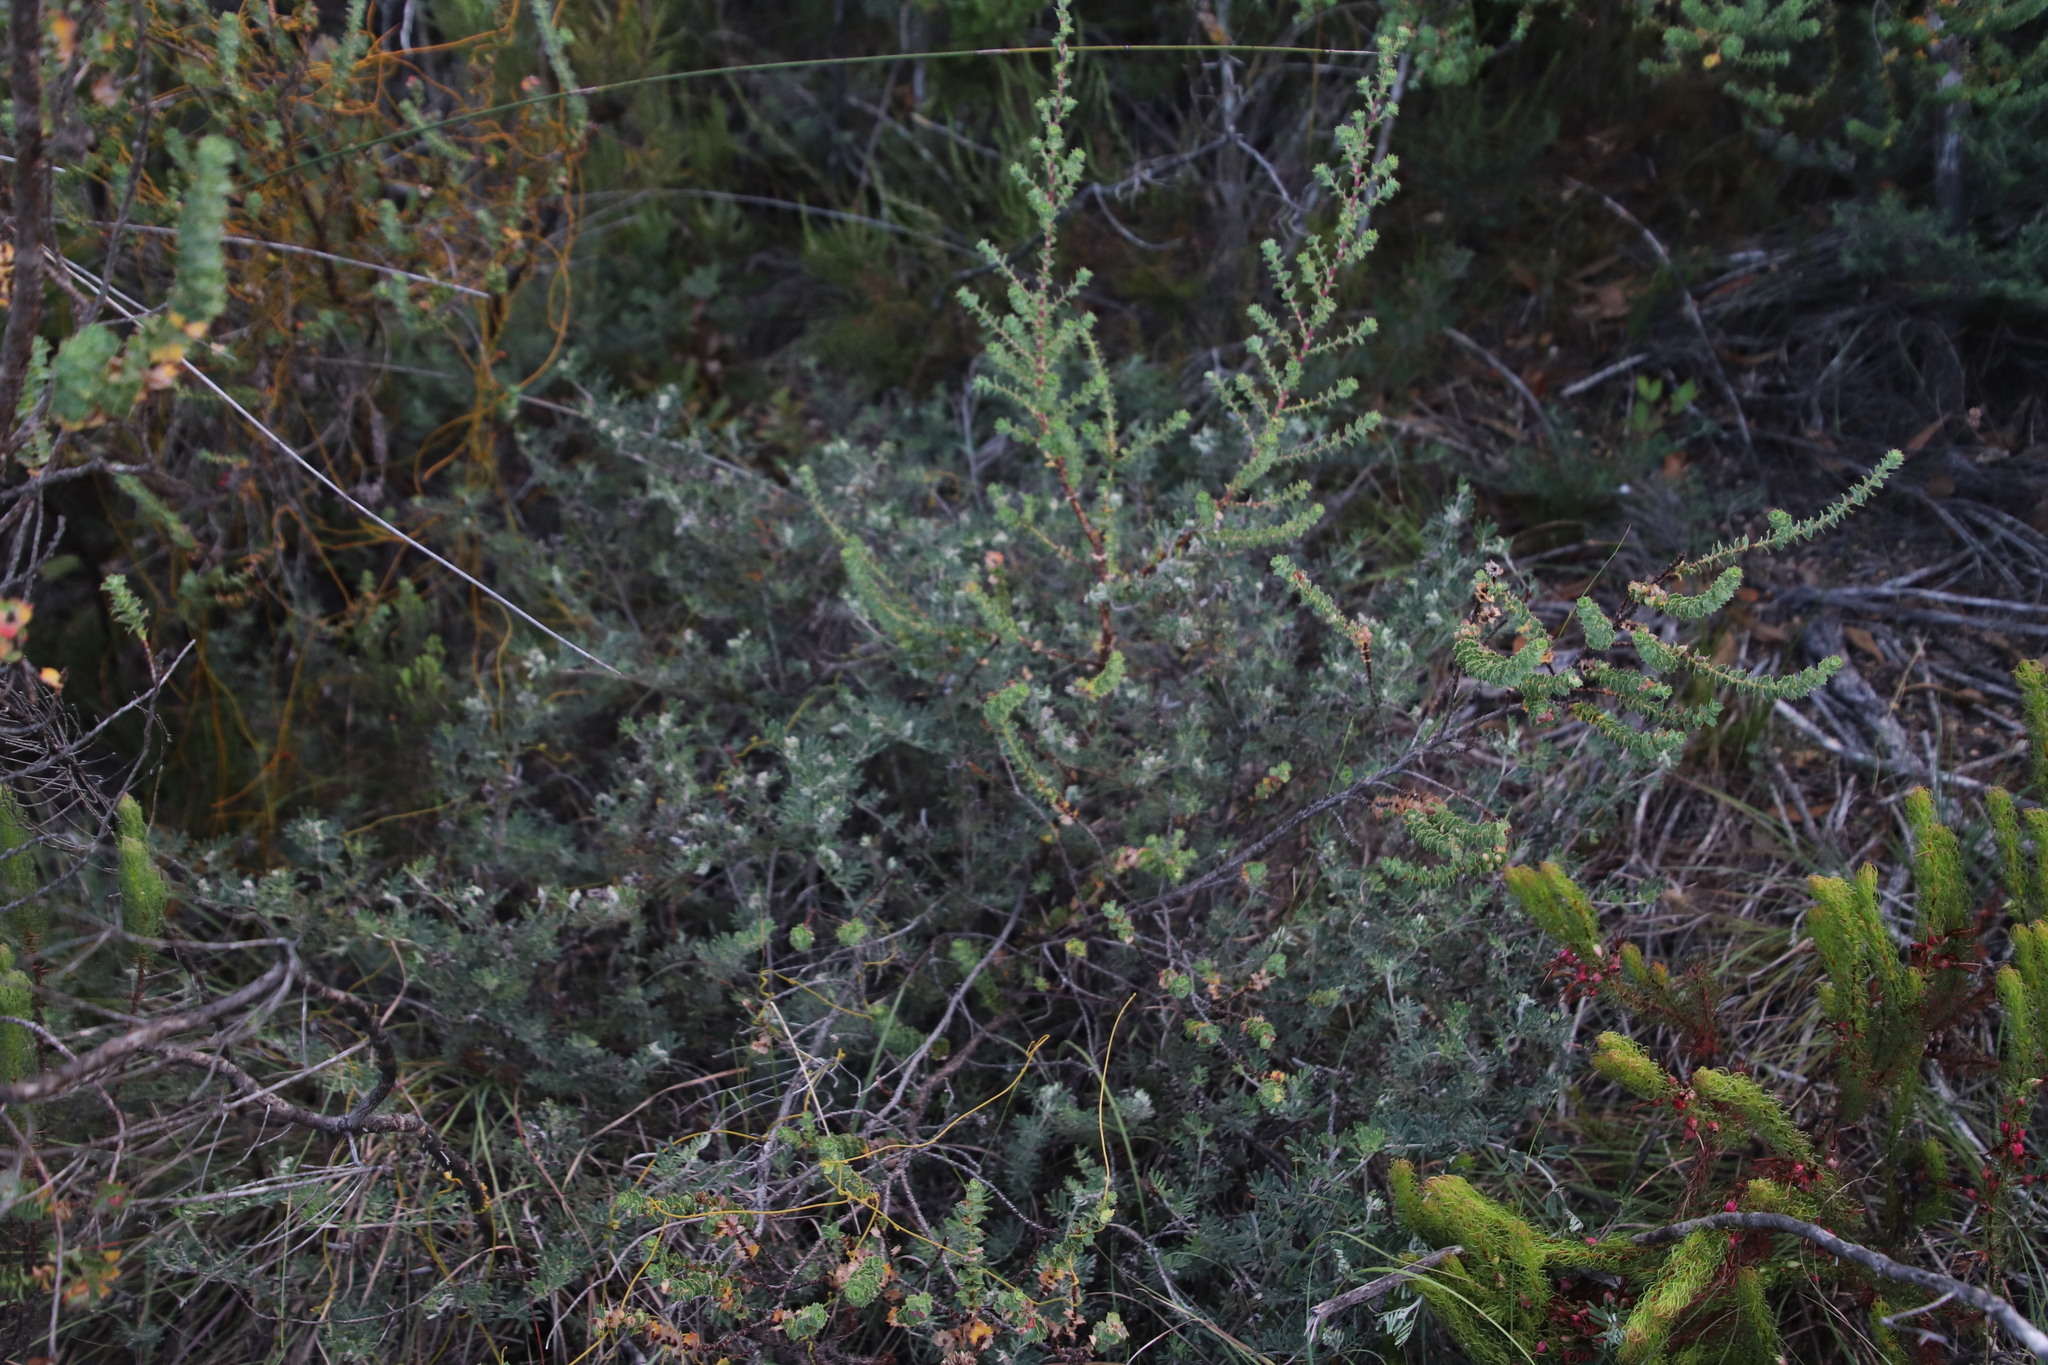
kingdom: Plantae
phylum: Tracheophyta
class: Magnoliopsida
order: Fabales
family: Fabaceae
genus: Microcharis
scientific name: Microcharis praetermissa
